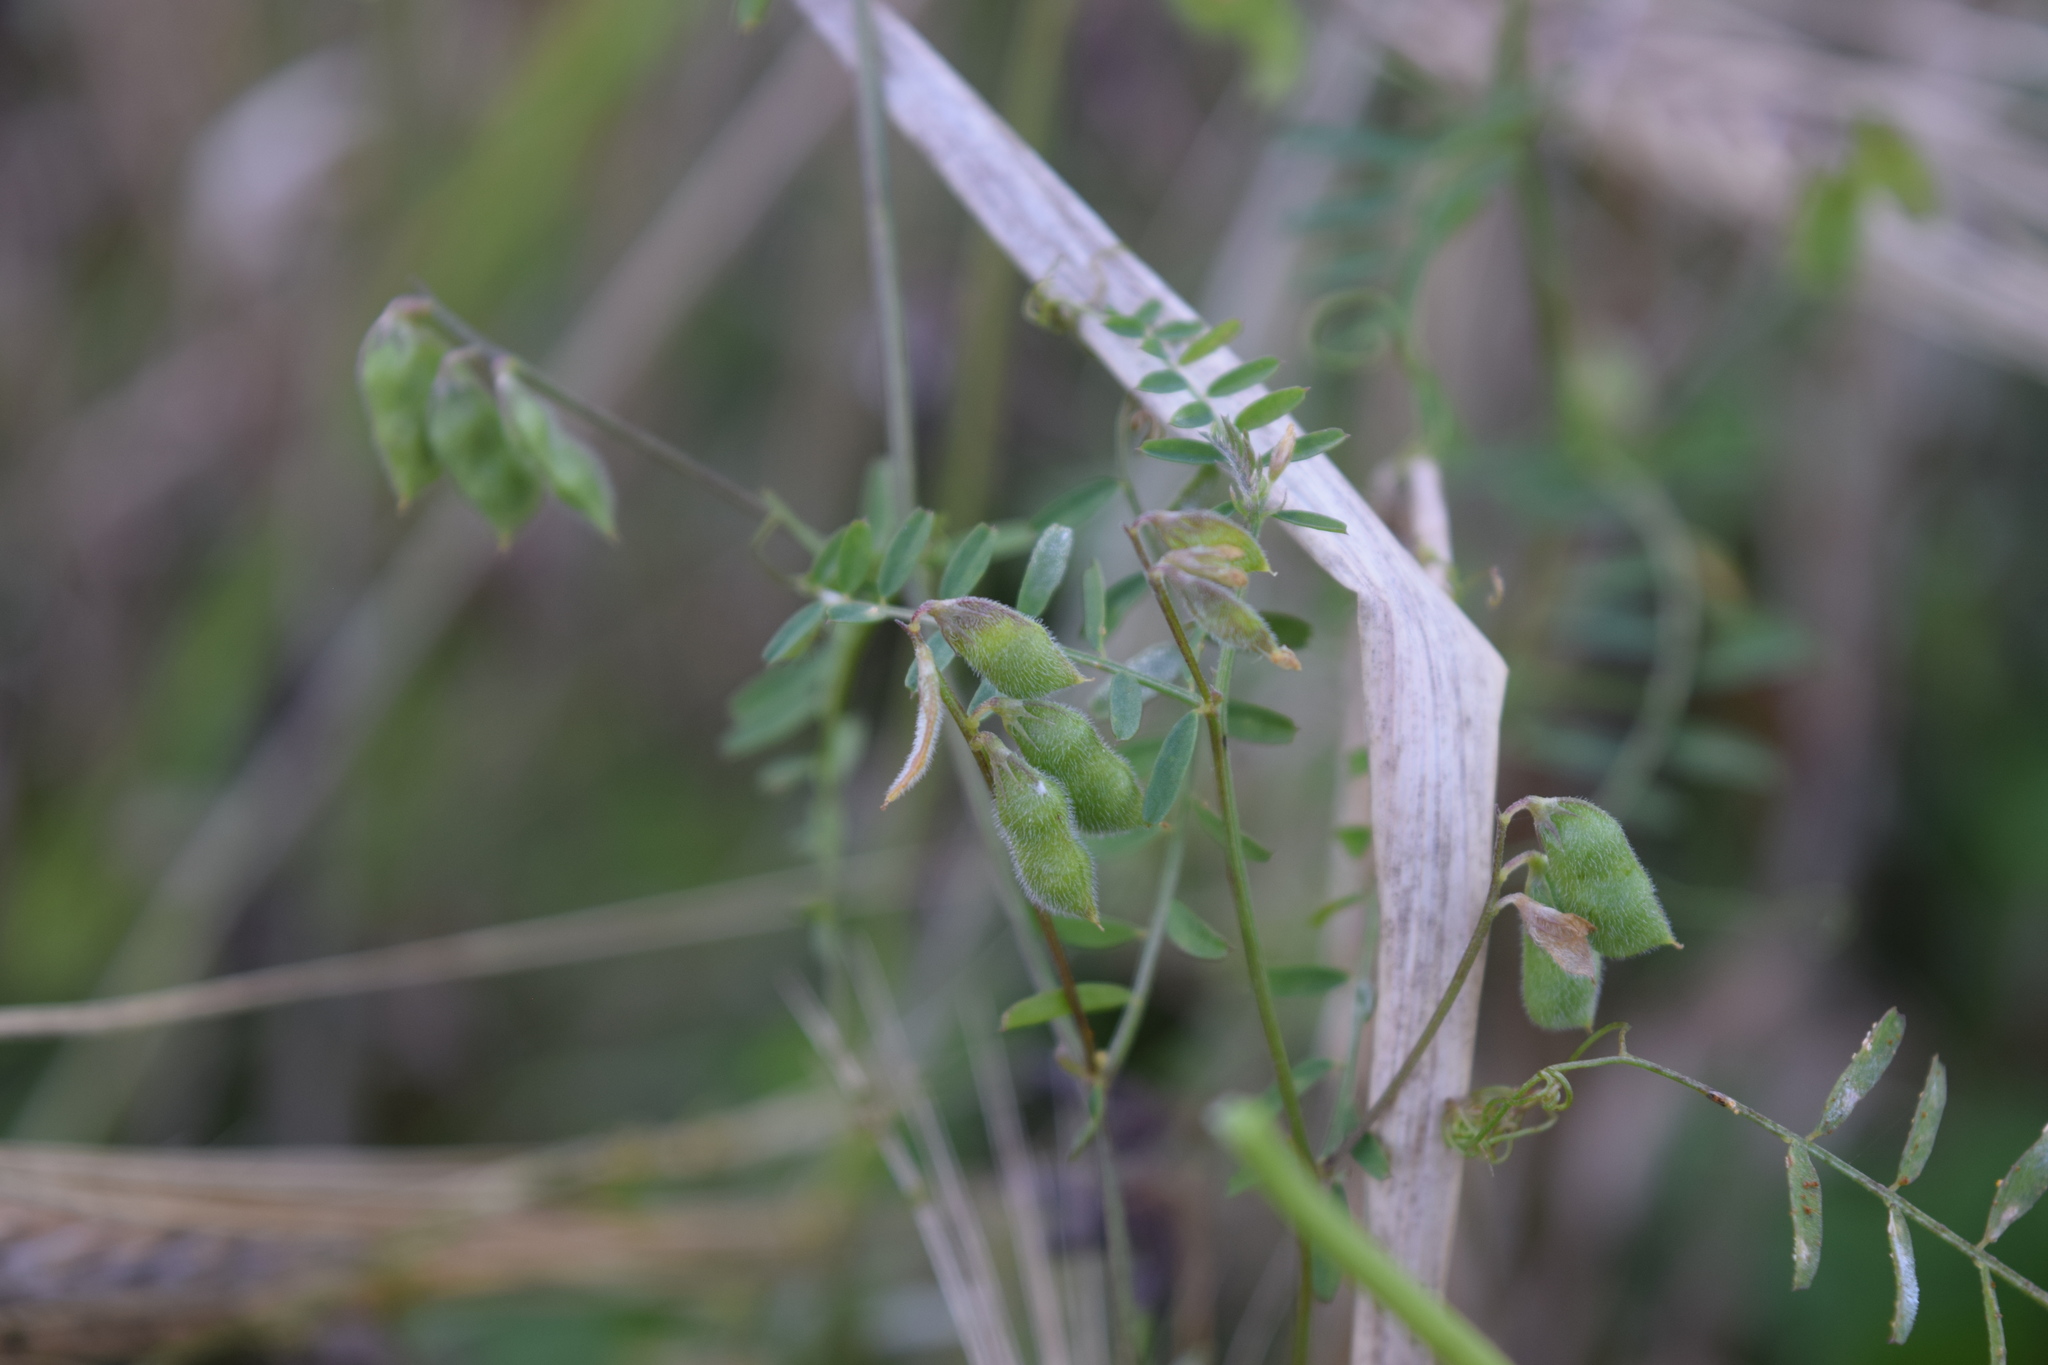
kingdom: Plantae
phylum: Tracheophyta
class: Magnoliopsida
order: Fabales
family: Fabaceae
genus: Vicia
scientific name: Vicia hirsuta
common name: Tiny vetch
